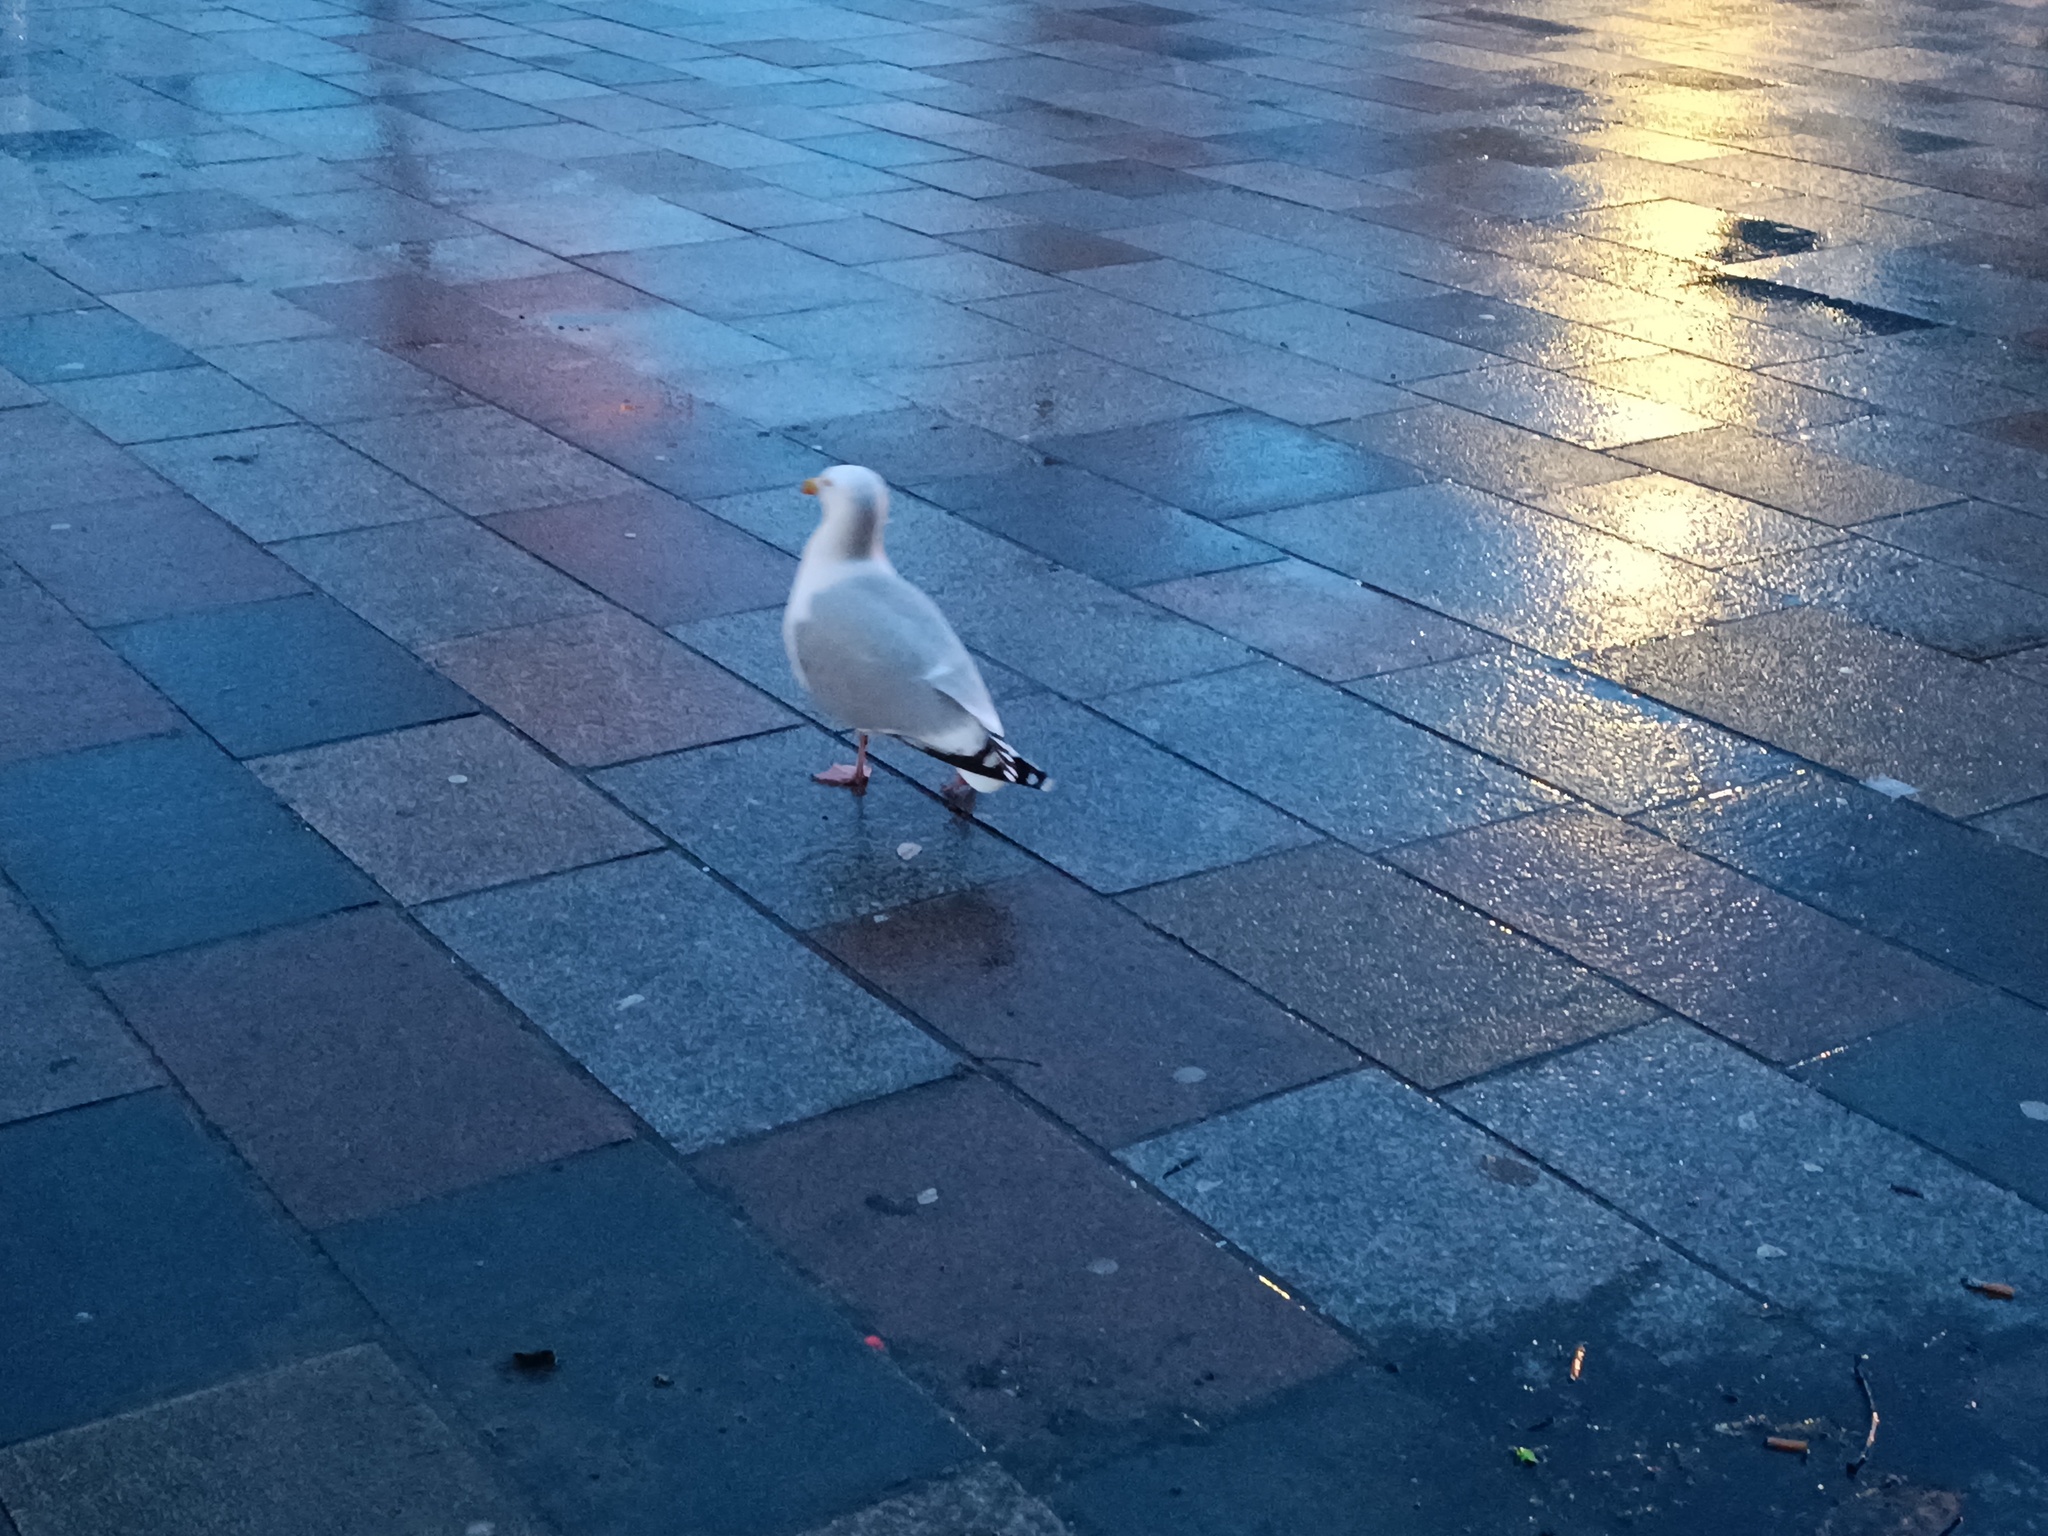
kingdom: Animalia
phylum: Chordata
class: Aves
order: Charadriiformes
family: Laridae
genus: Larus
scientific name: Larus argentatus
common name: Herring gull
